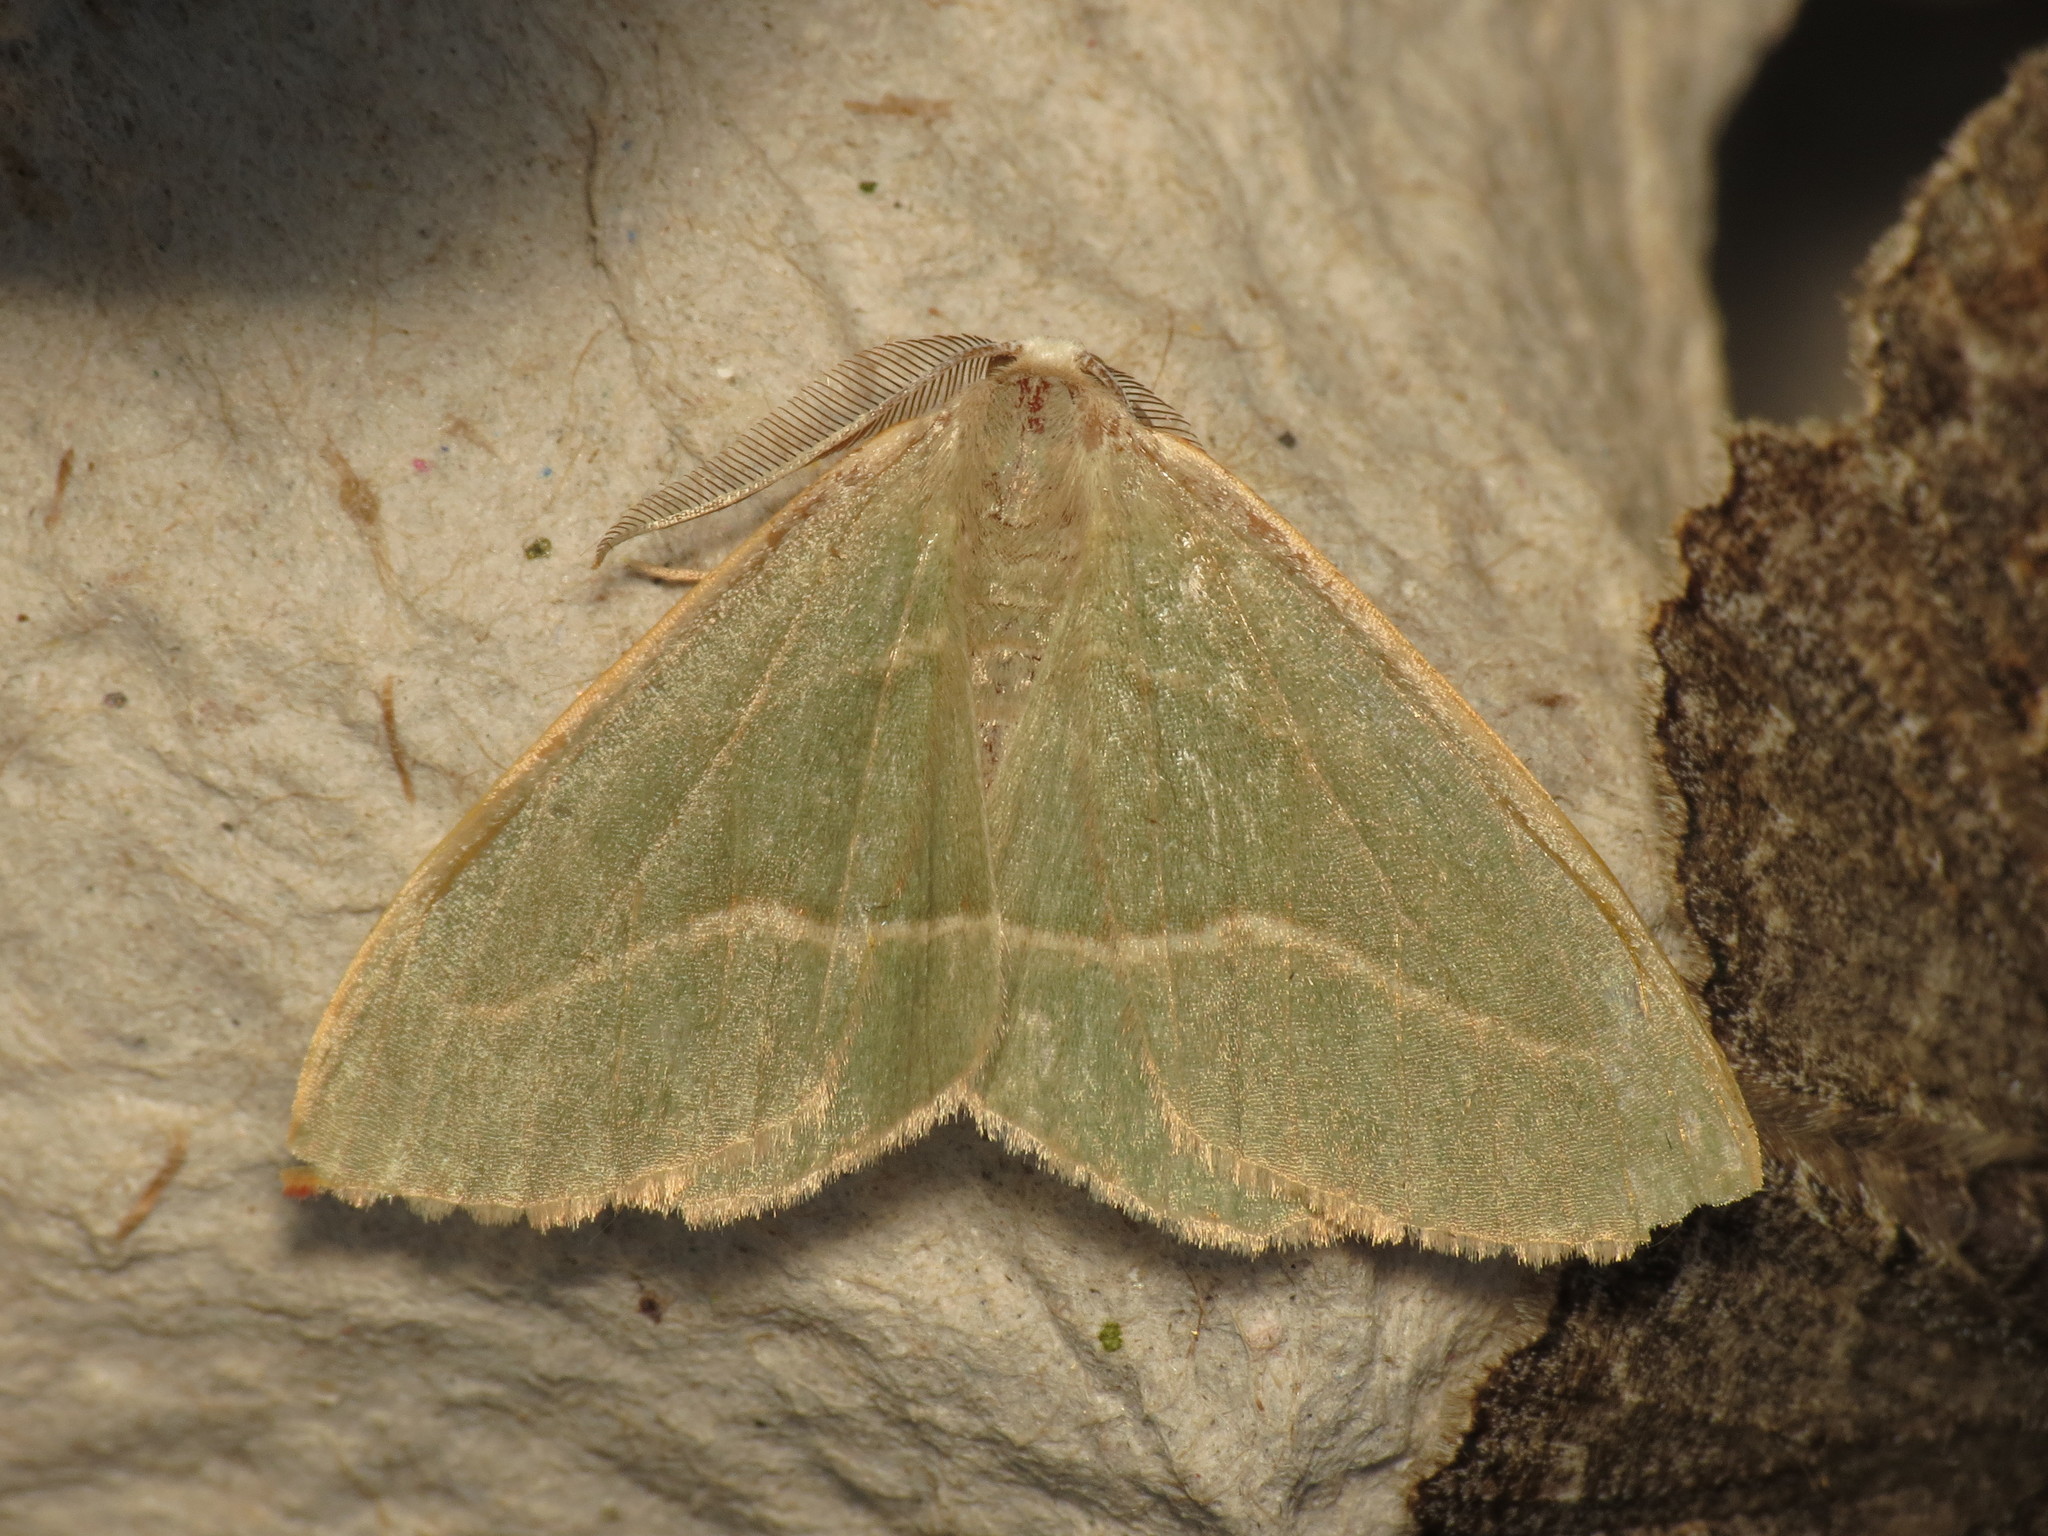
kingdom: Animalia
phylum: Arthropoda
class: Insecta
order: Lepidoptera
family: Geometridae
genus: Hylaea
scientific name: Hylaea fasciaria
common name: Barred red
